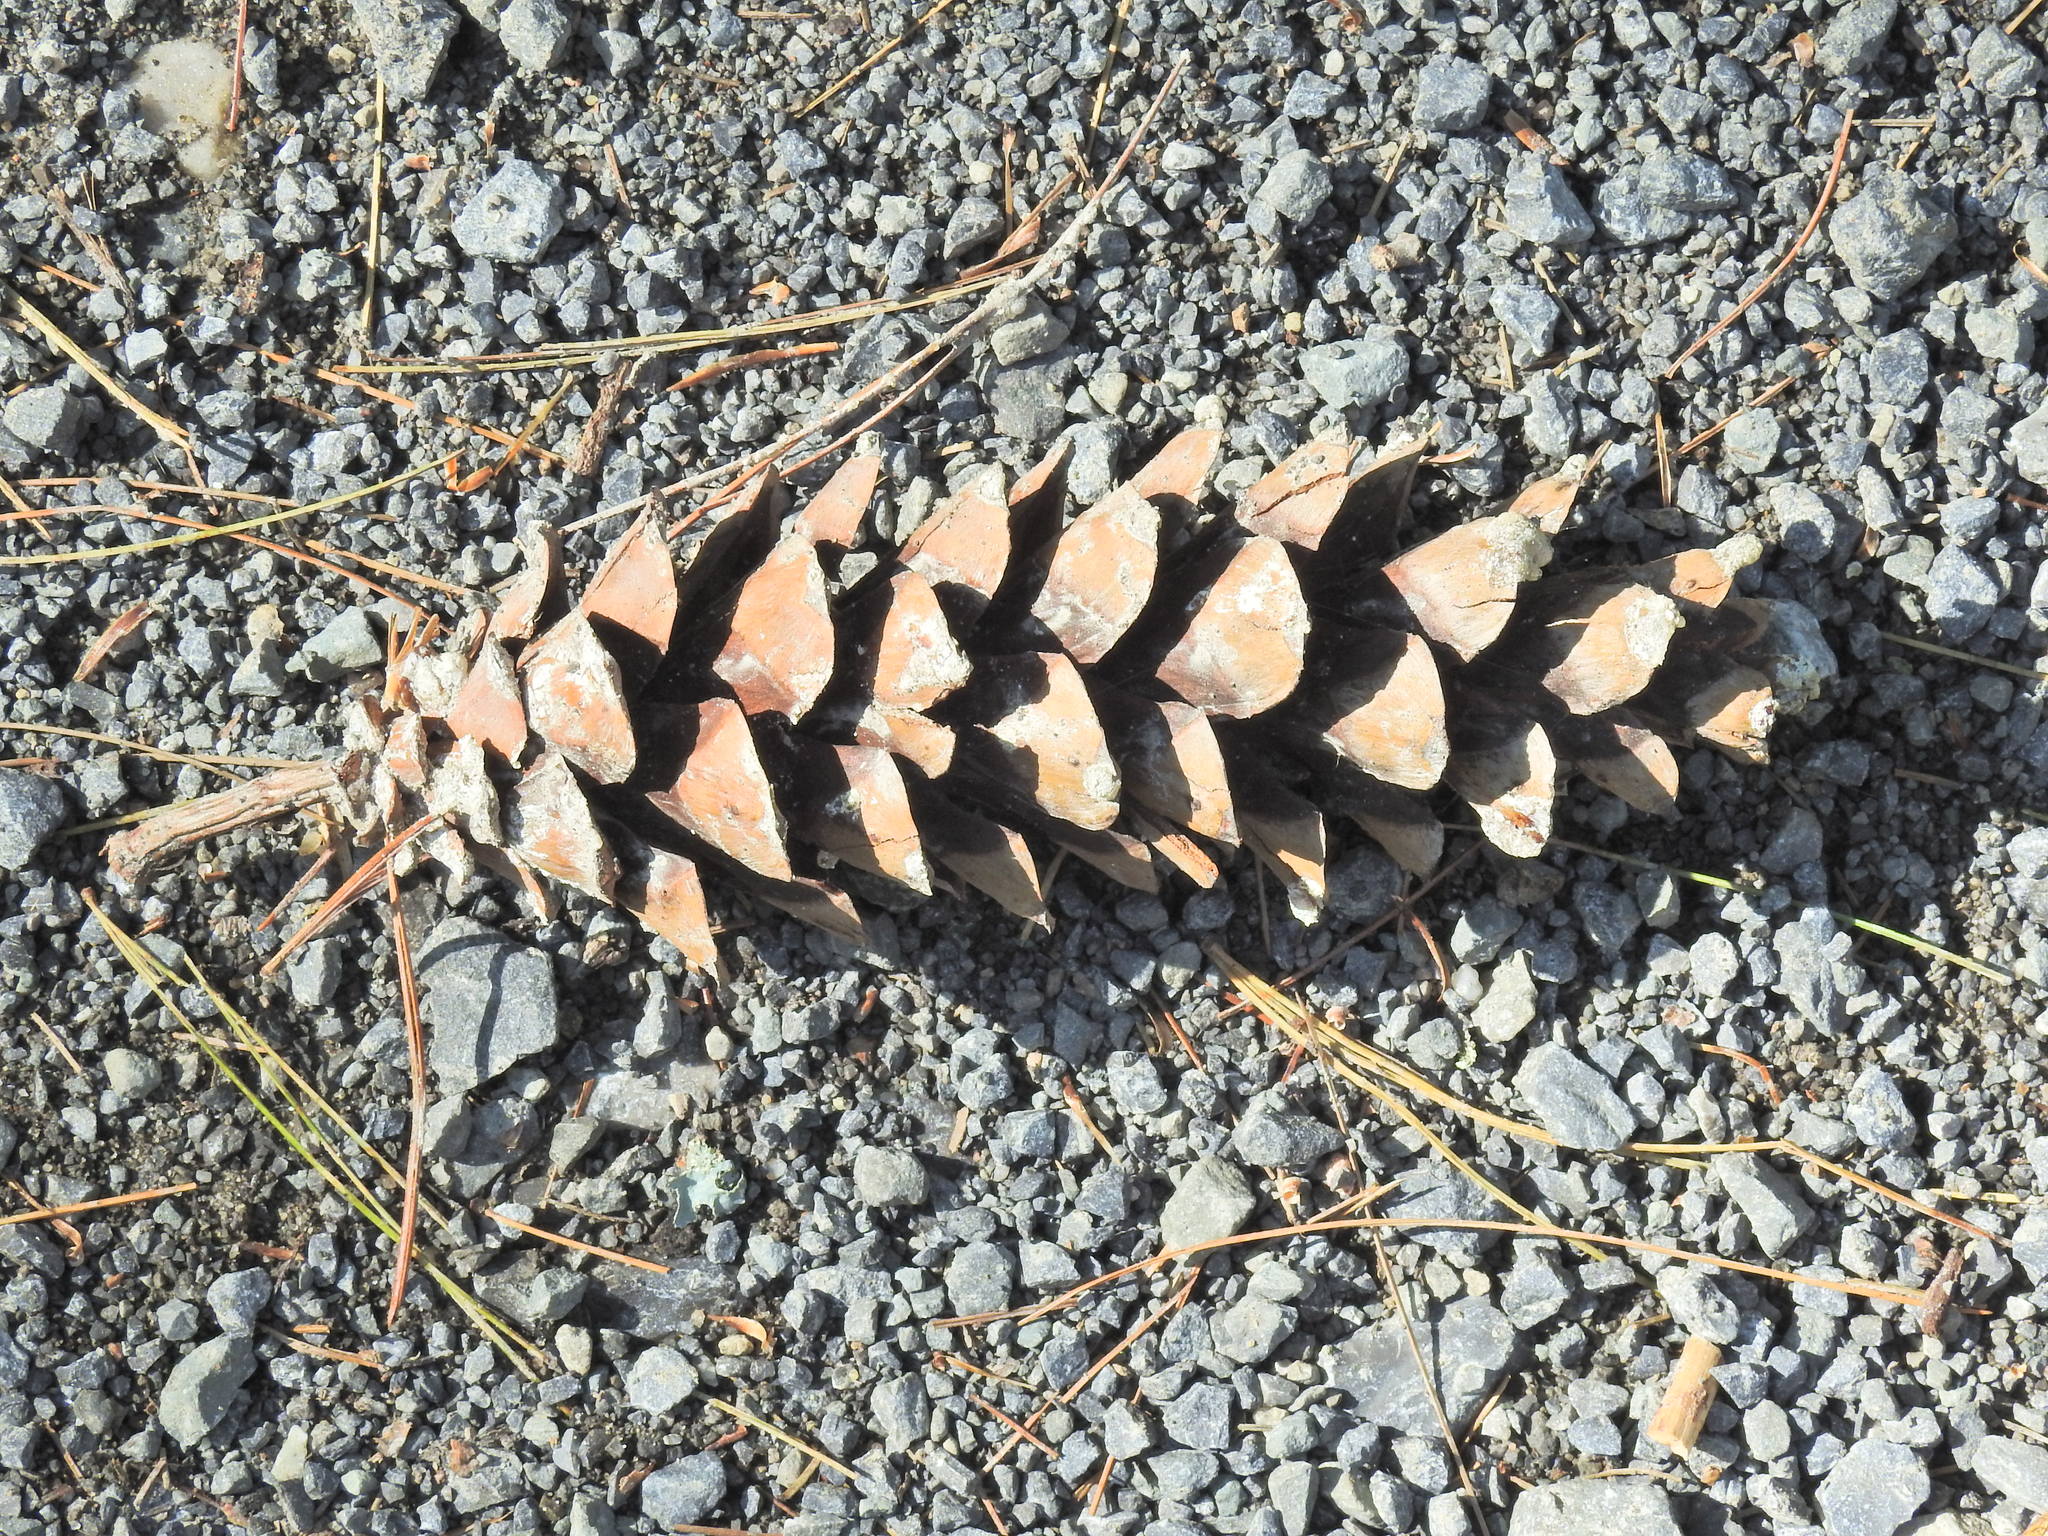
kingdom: Plantae
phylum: Tracheophyta
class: Pinopsida
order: Pinales
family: Pinaceae
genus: Pinus
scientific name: Pinus strobus
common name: Weymouth pine
